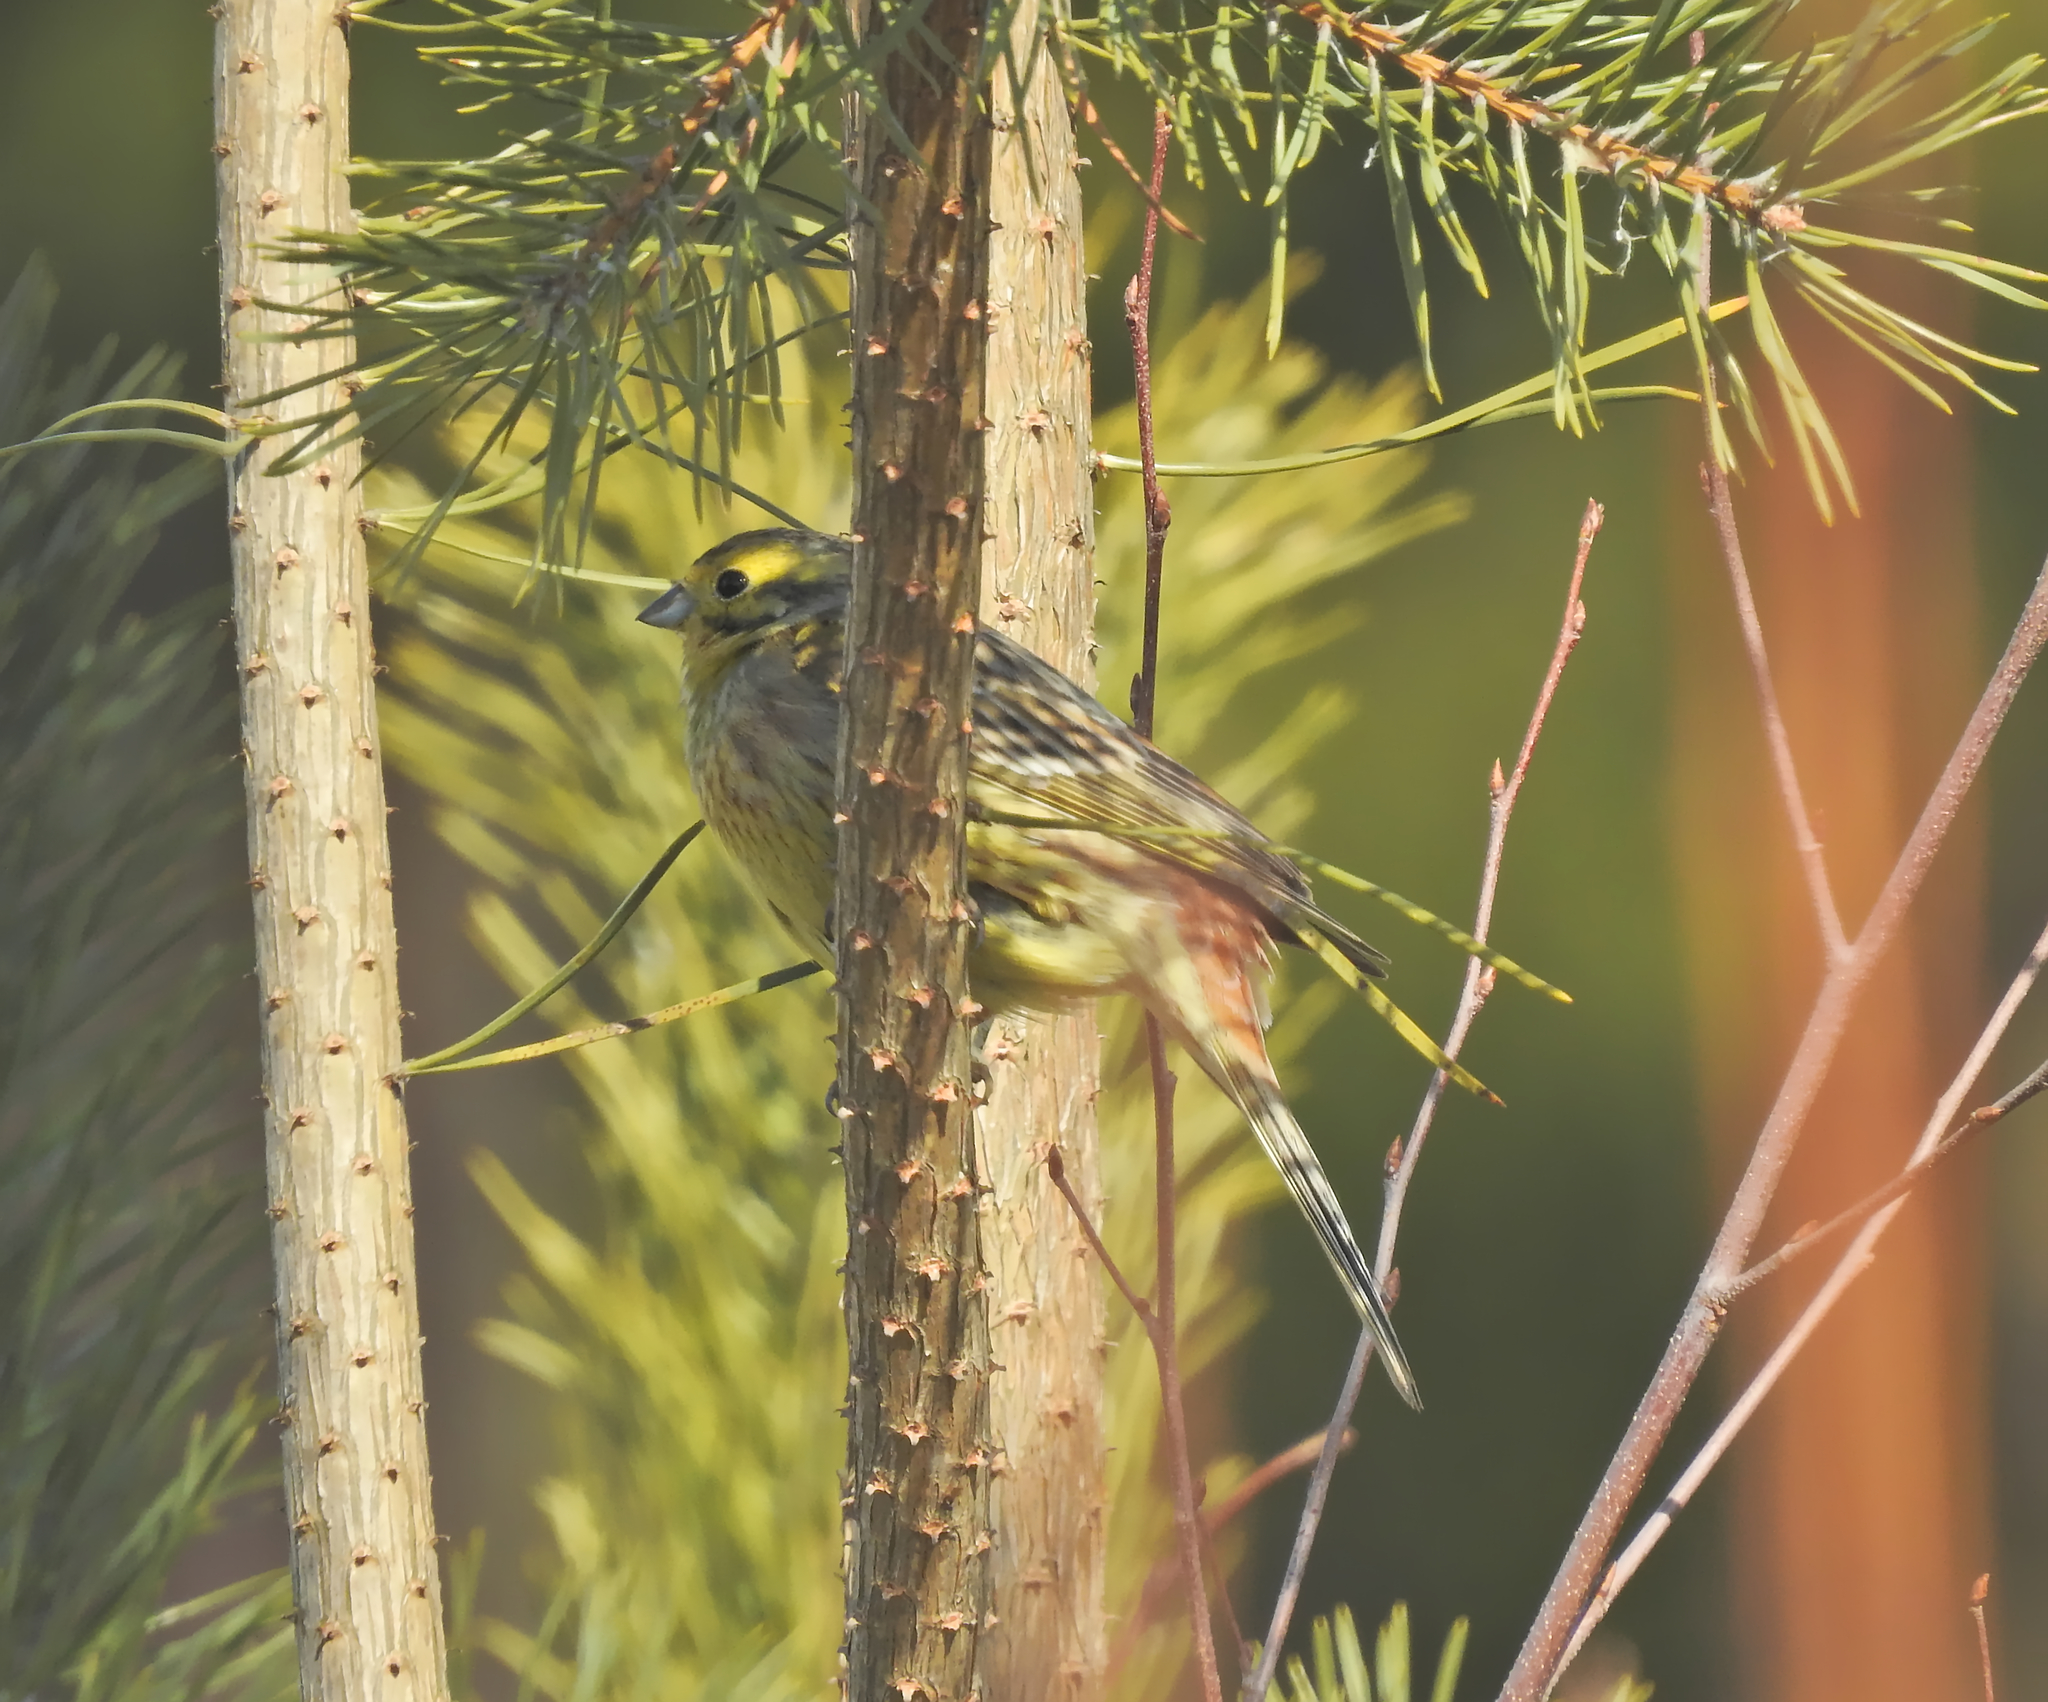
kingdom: Animalia
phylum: Chordata
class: Aves
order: Passeriformes
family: Emberizidae
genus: Emberiza
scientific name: Emberiza citrinella
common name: Yellowhammer
